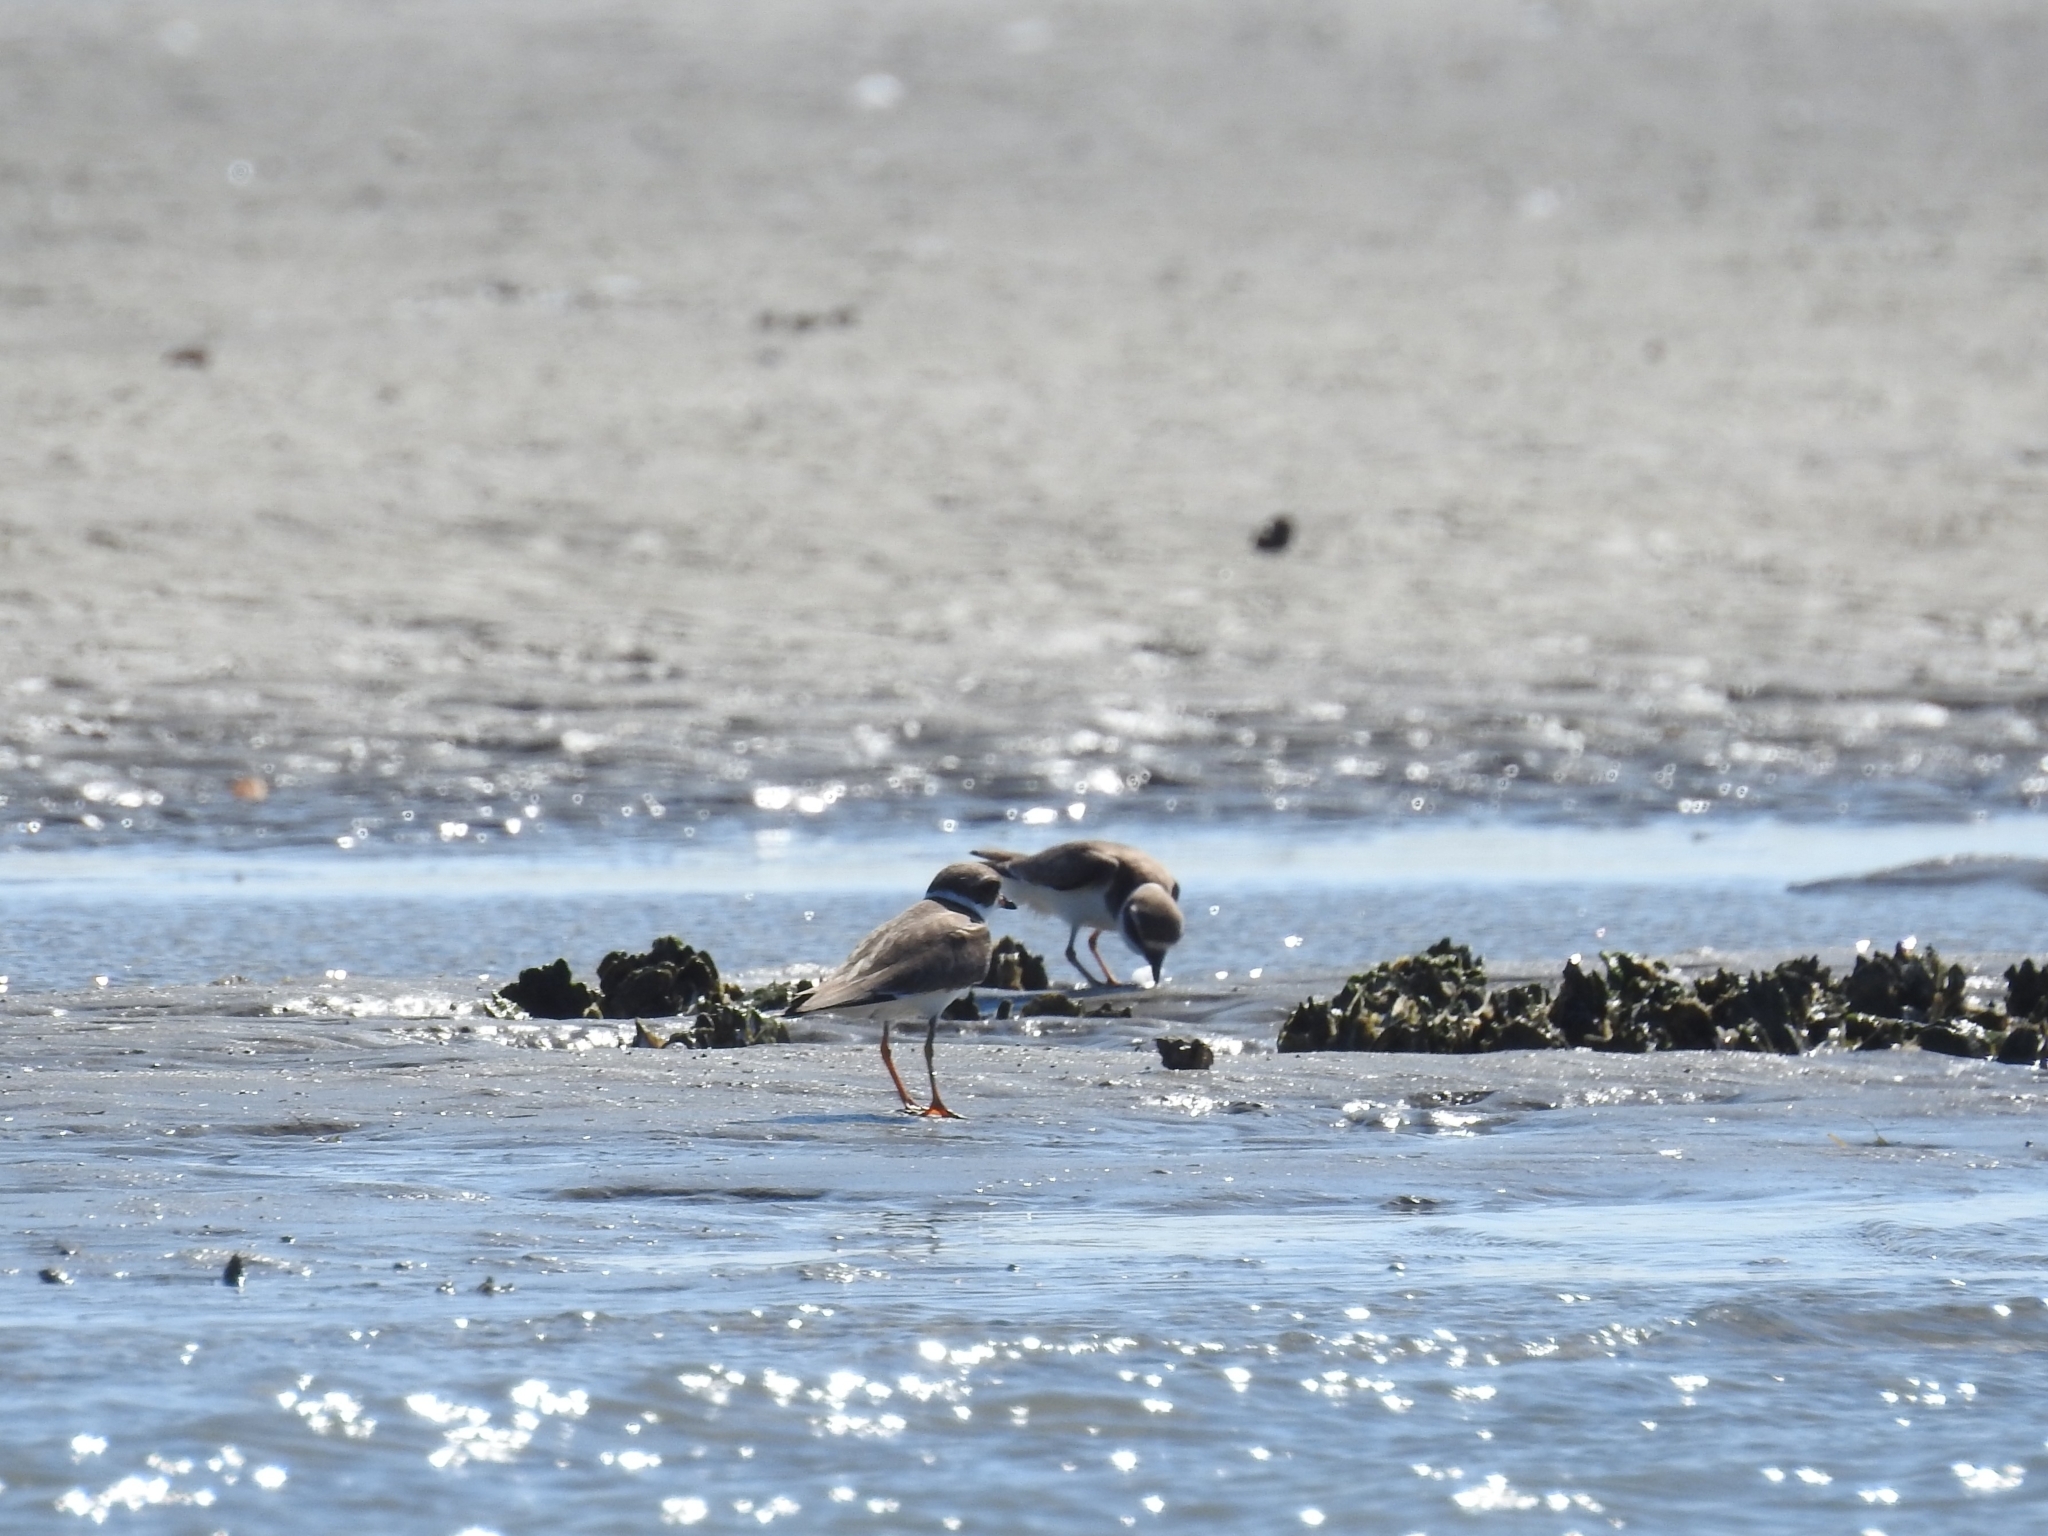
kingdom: Animalia
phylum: Chordata
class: Aves
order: Charadriiformes
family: Charadriidae
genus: Charadrius
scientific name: Charadrius semipalmatus
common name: Semipalmated plover
